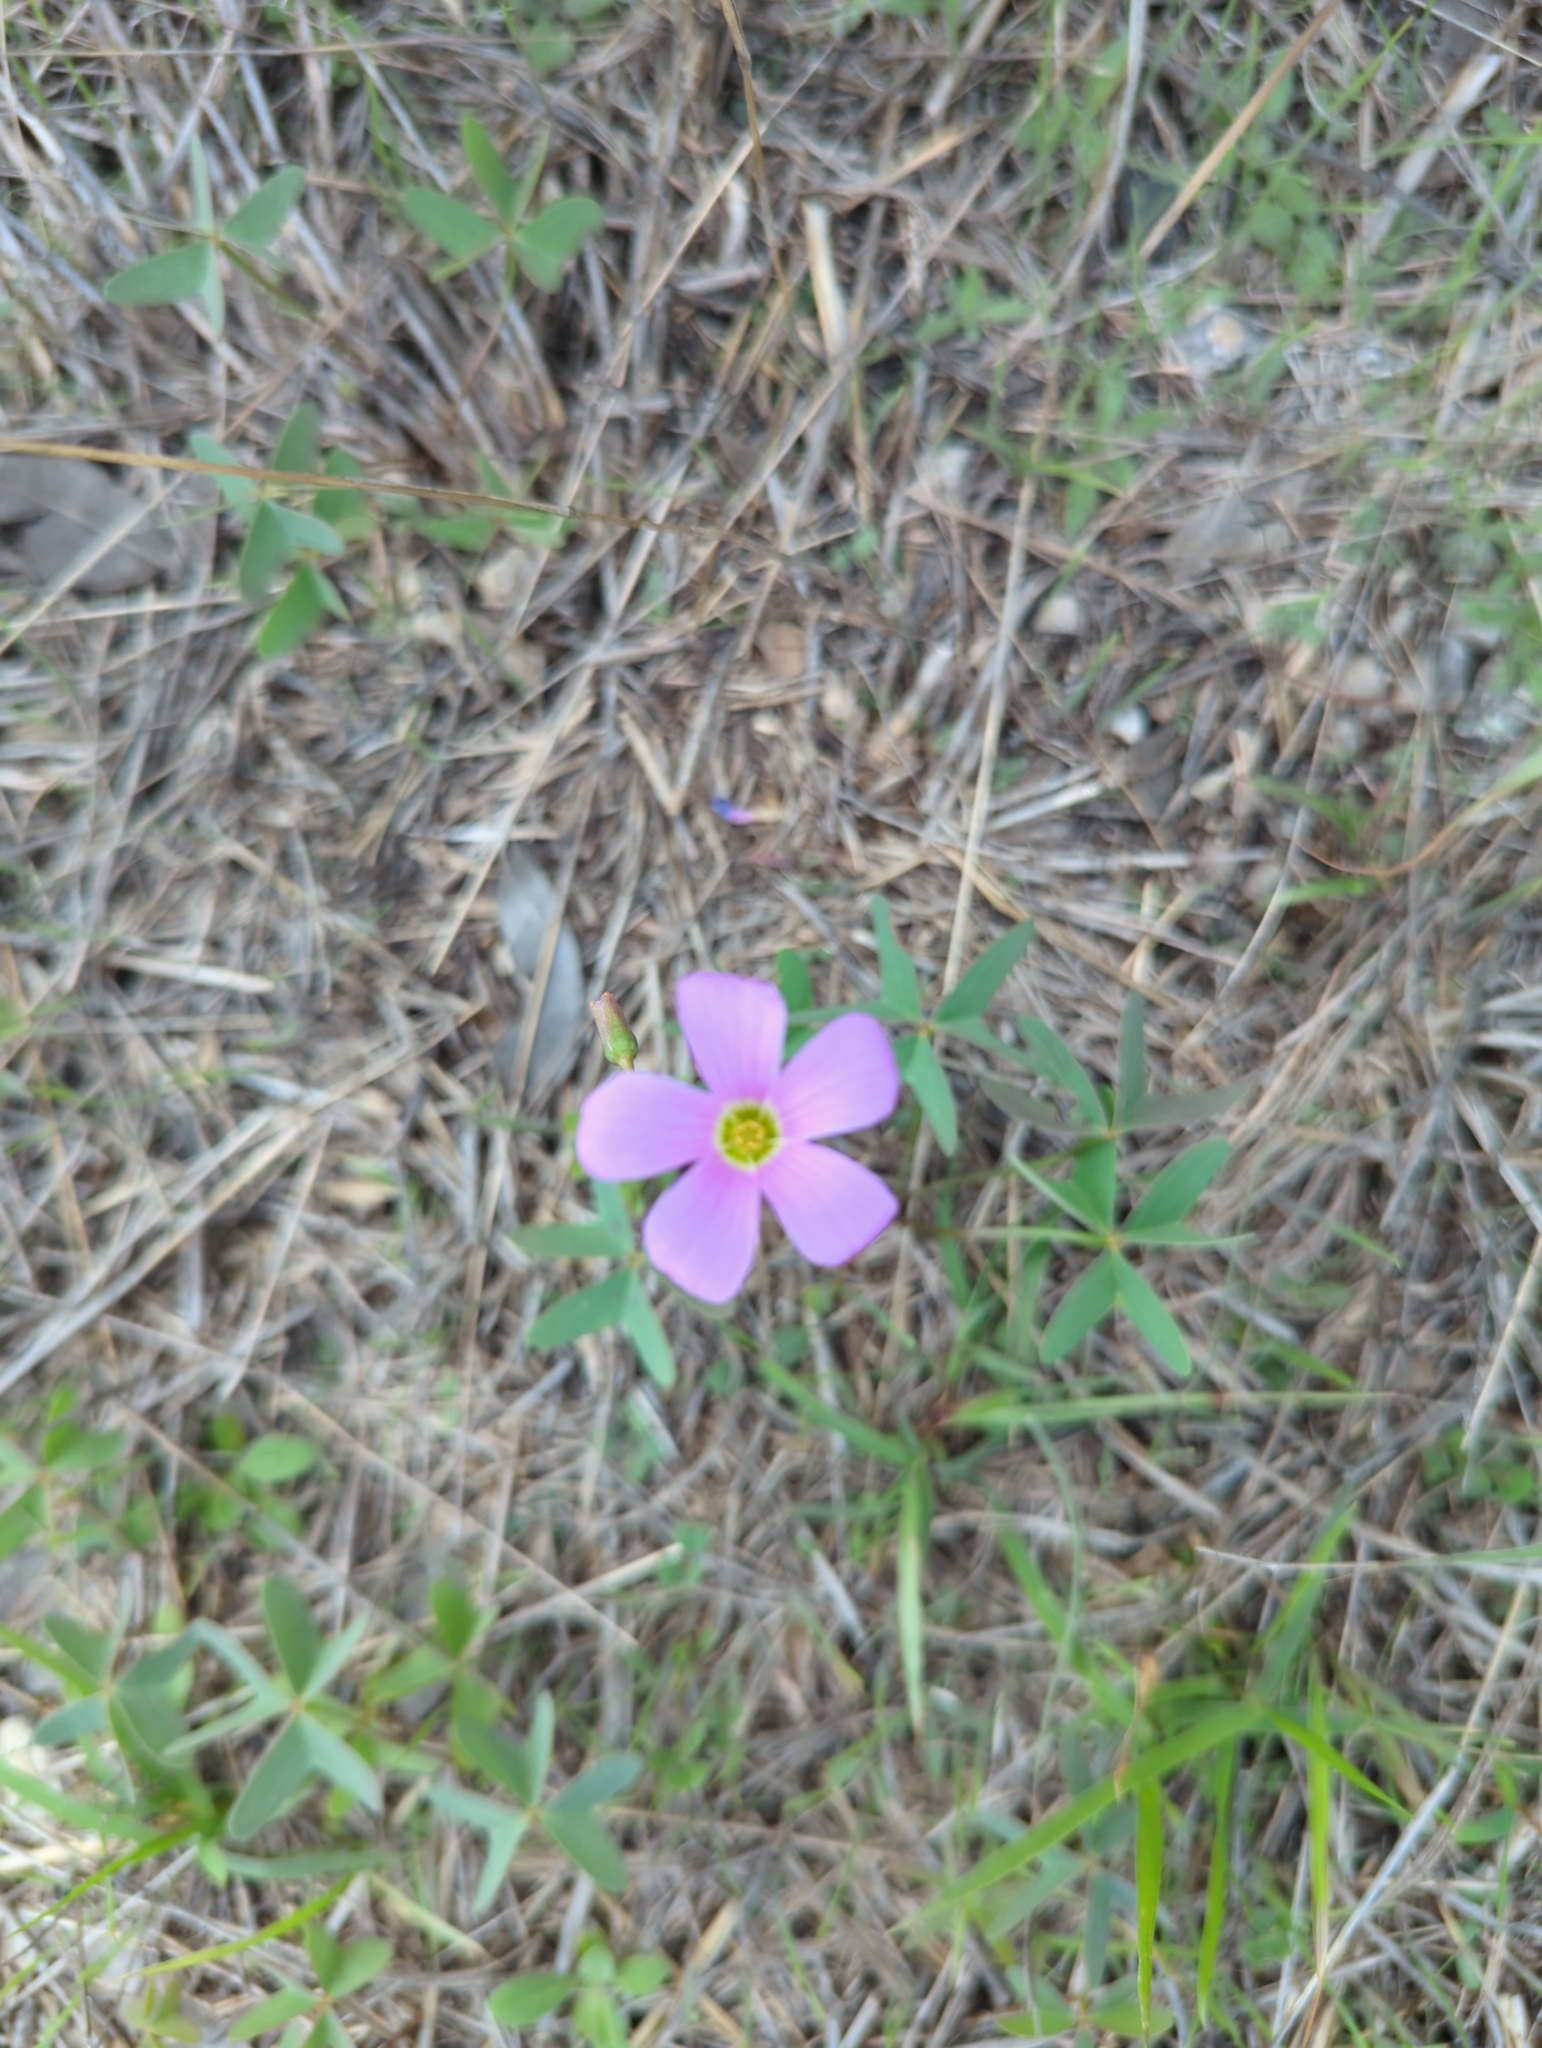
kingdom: Plantae
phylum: Tracheophyta
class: Magnoliopsida
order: Oxalidales
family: Oxalidaceae
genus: Oxalis
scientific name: Oxalis drummondii
